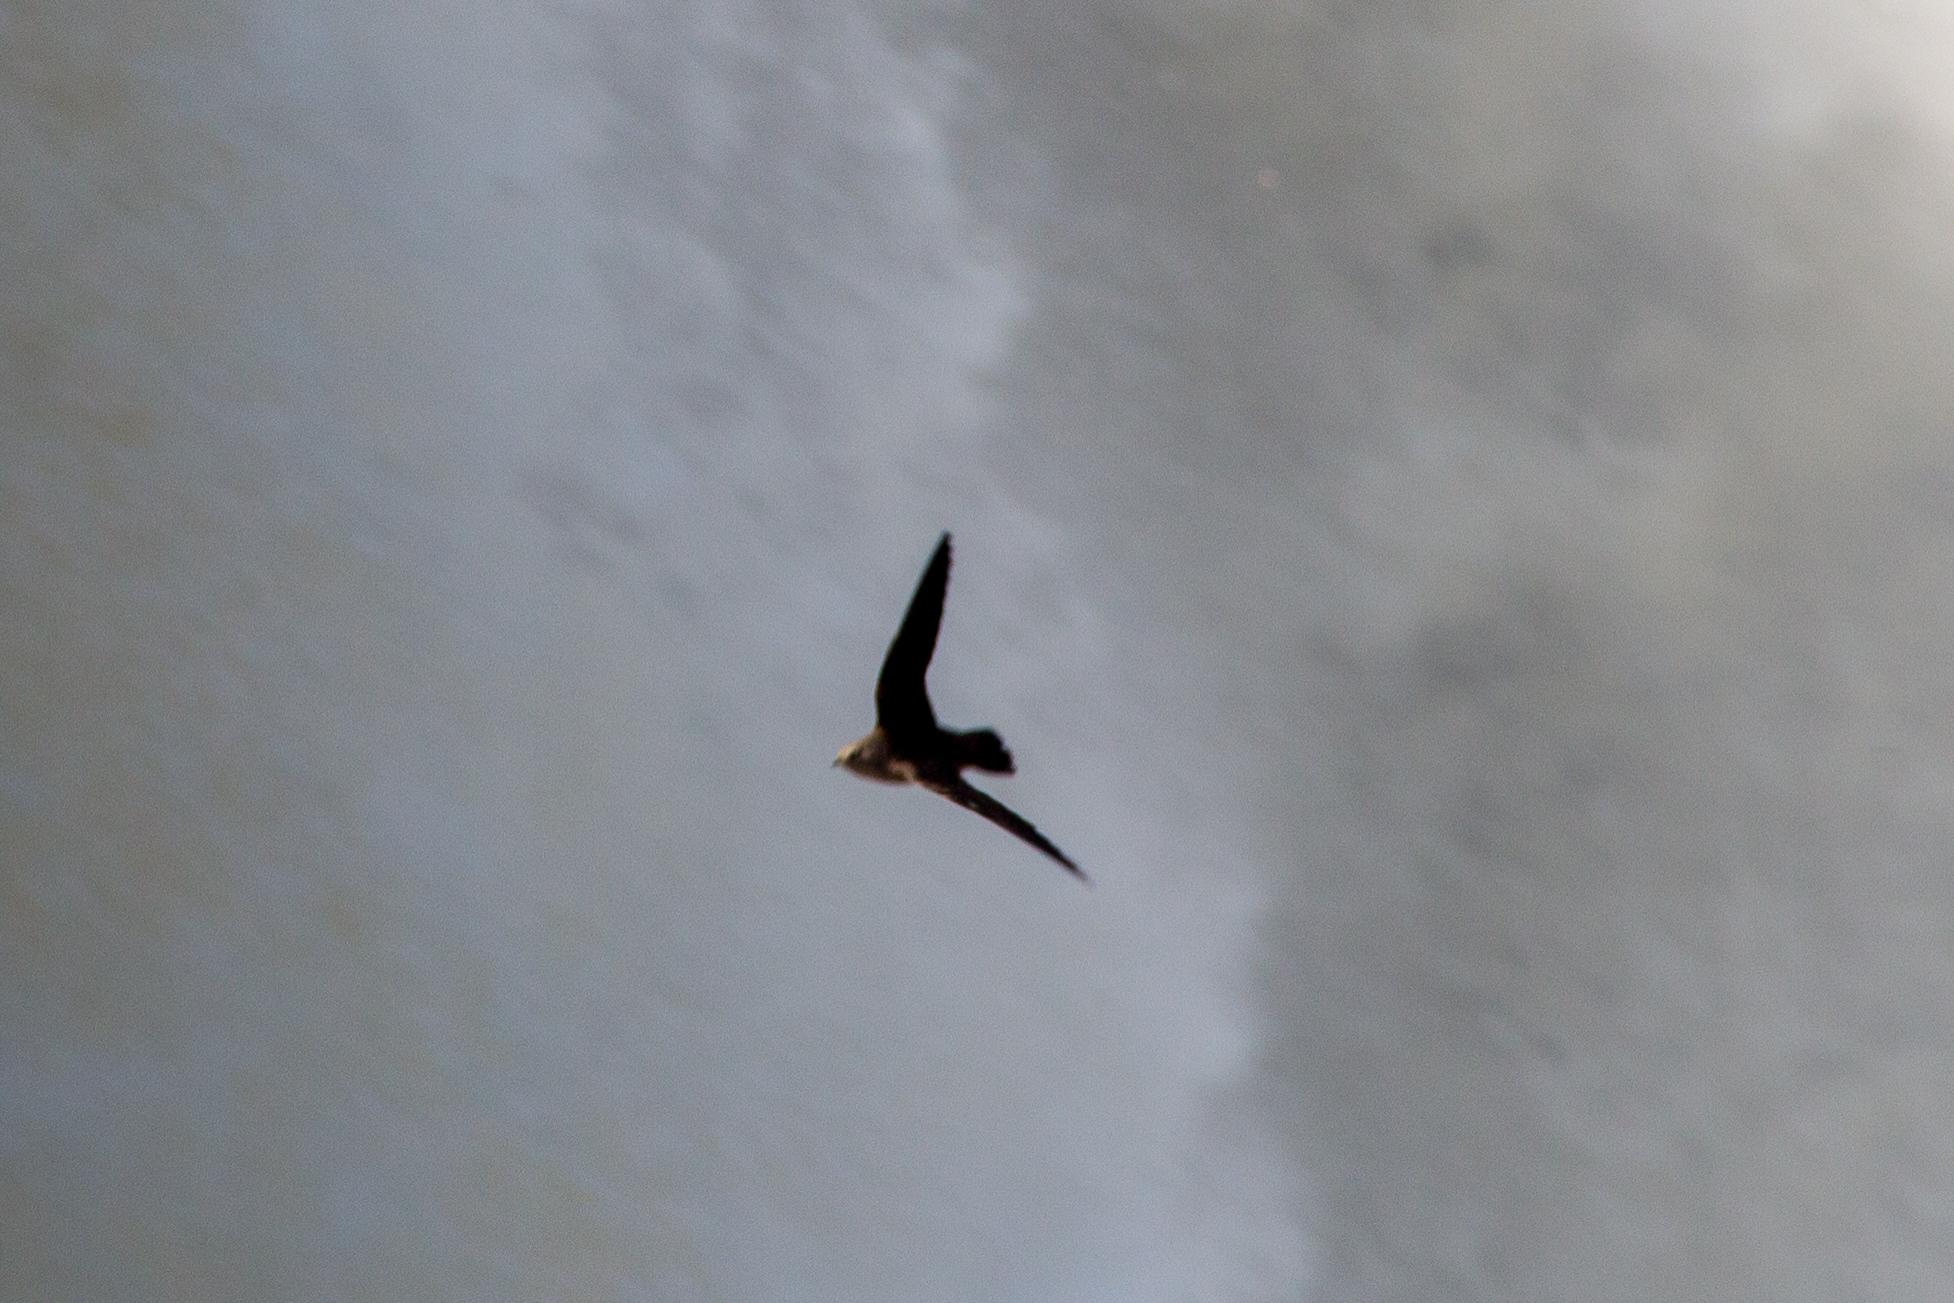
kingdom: Animalia
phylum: Chordata
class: Aves
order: Apodiformes
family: Apodidae
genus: Cypseloides
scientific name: Cypseloides senex
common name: Great dusky swift
